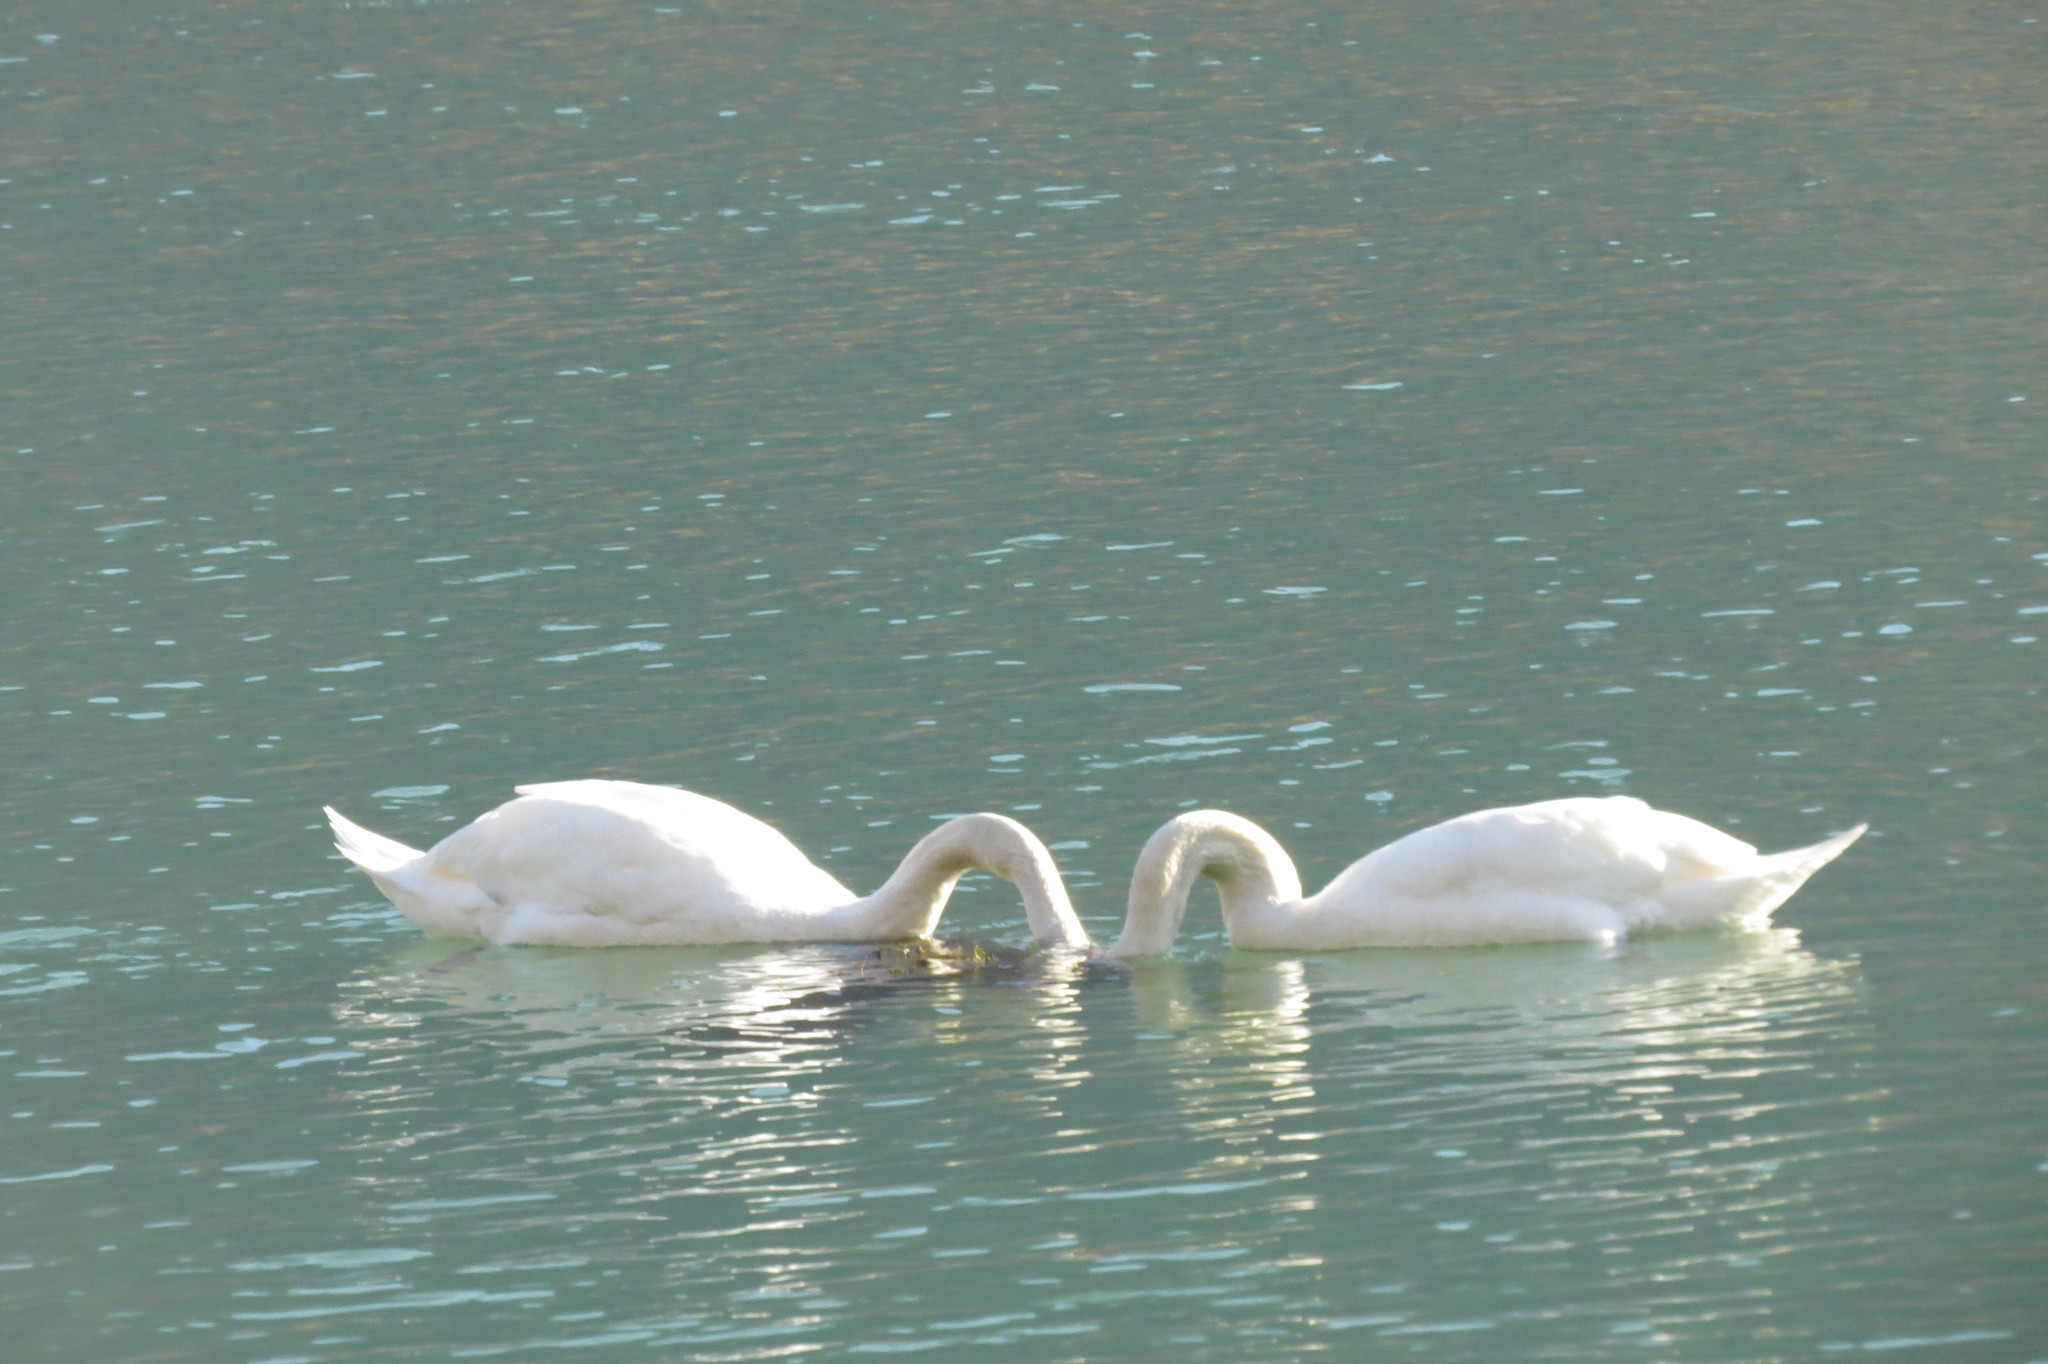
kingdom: Animalia
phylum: Chordata
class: Aves
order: Anseriformes
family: Anatidae
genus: Cygnus
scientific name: Cygnus olor
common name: Mute swan
